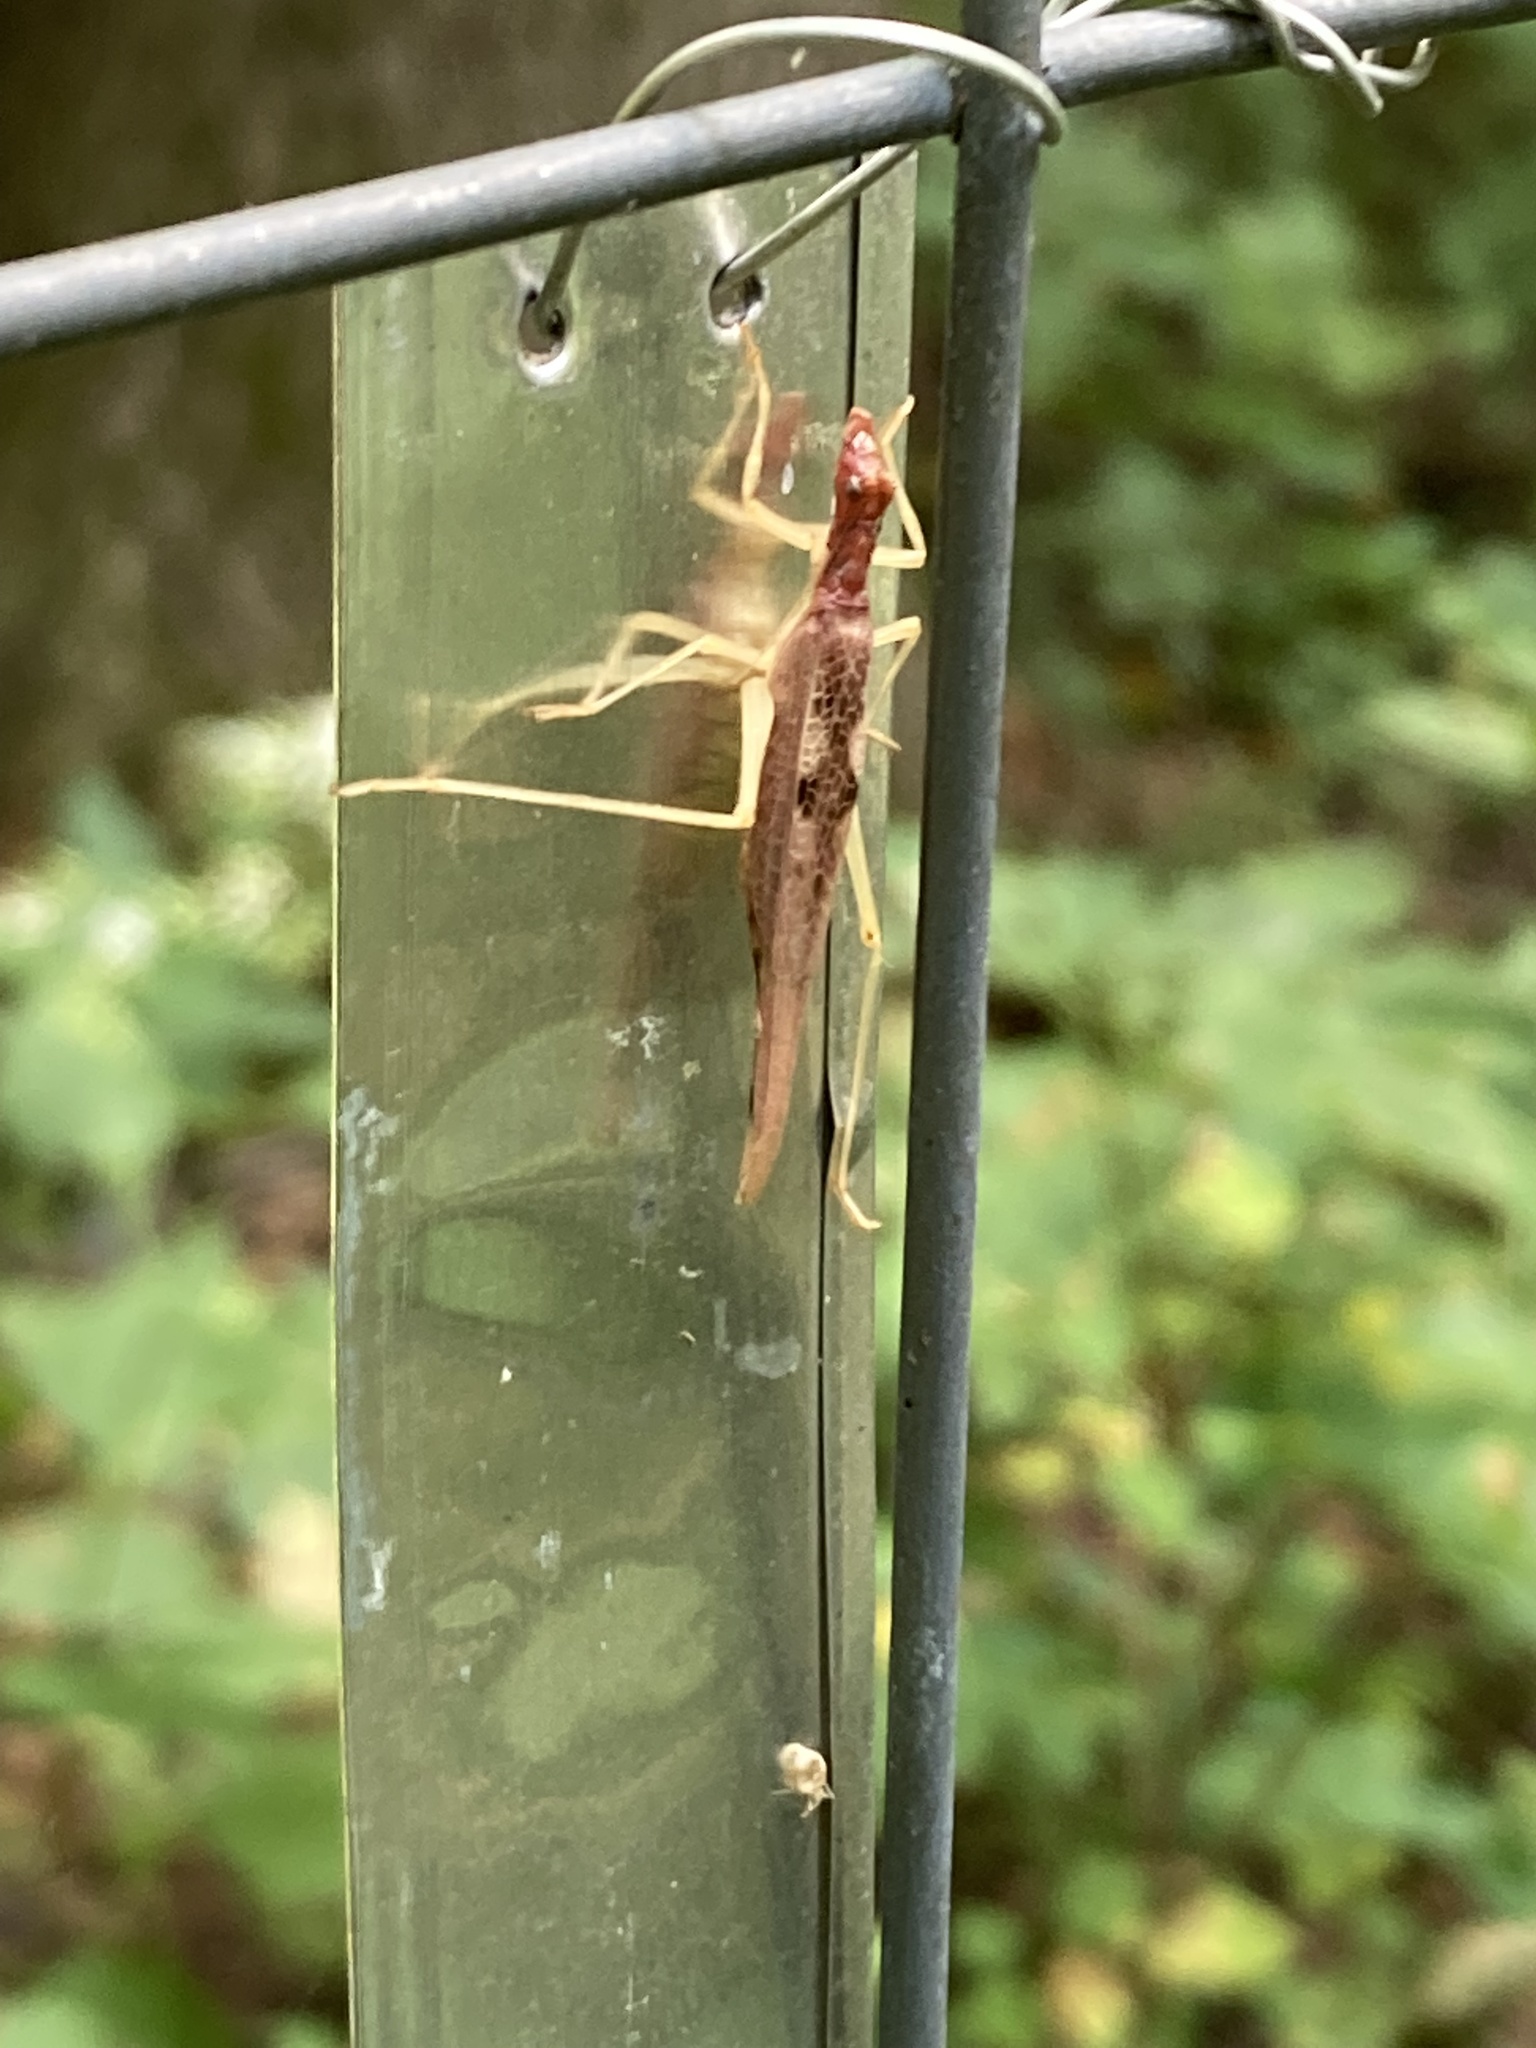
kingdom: Animalia
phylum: Arthropoda
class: Insecta
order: Orthoptera
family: Gryllidae
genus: Neoxabea
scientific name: Neoxabea bipunctata
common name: Two-spotted tree cricket
